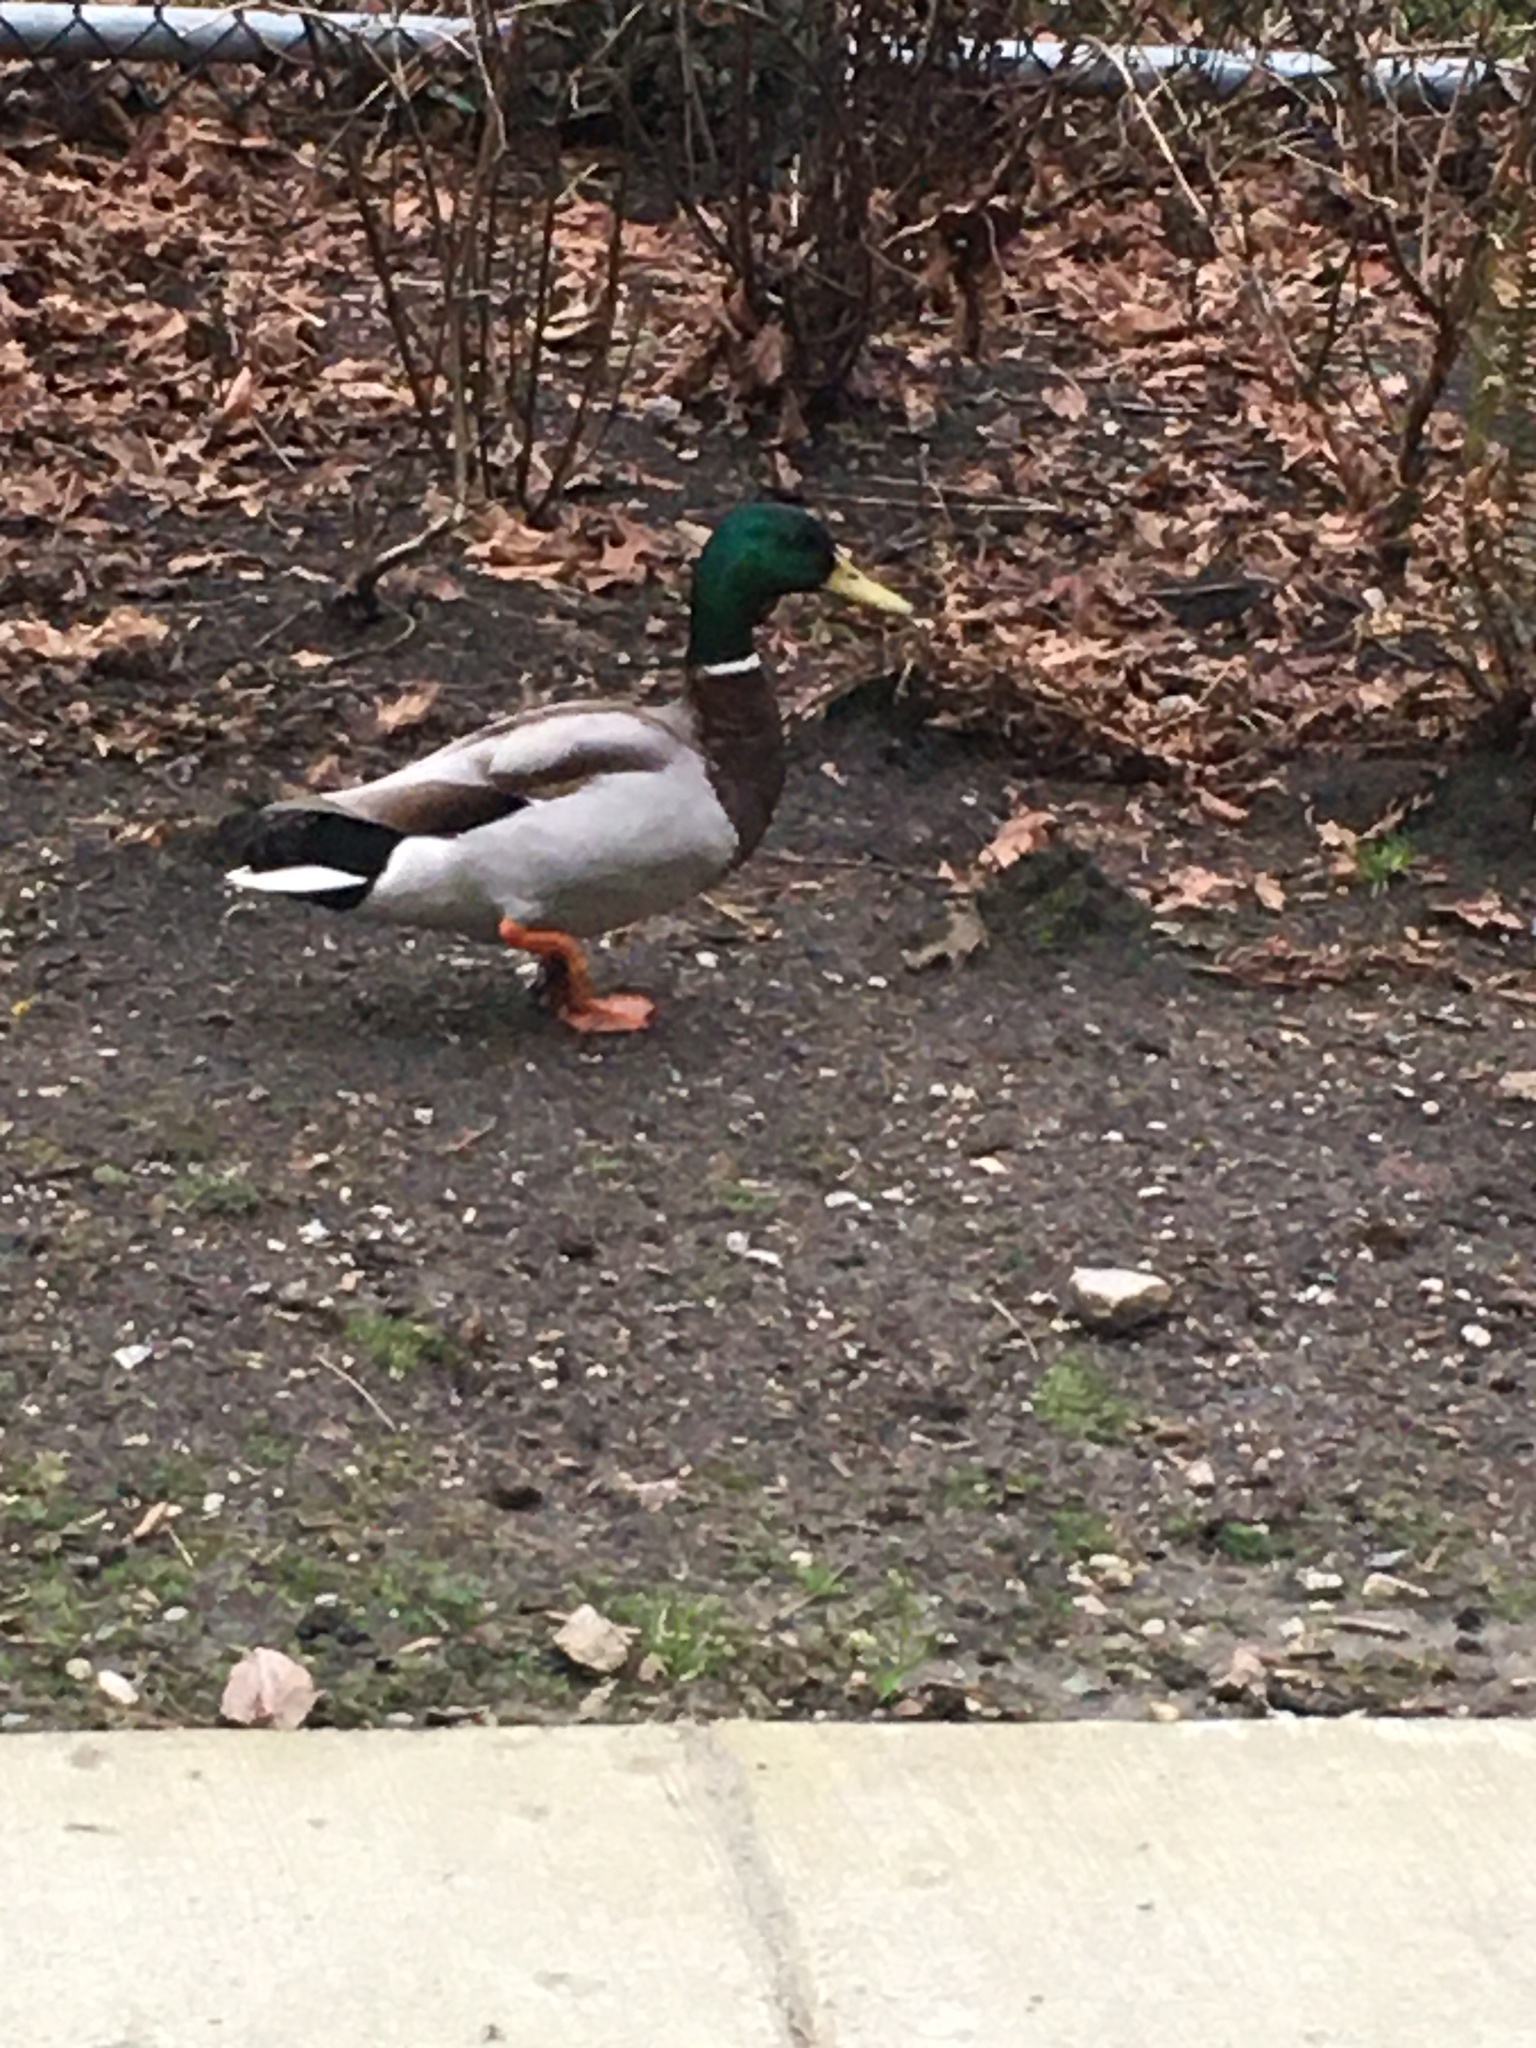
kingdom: Animalia
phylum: Chordata
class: Aves
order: Anseriformes
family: Anatidae
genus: Anas
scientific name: Anas platyrhynchos
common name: Mallard
